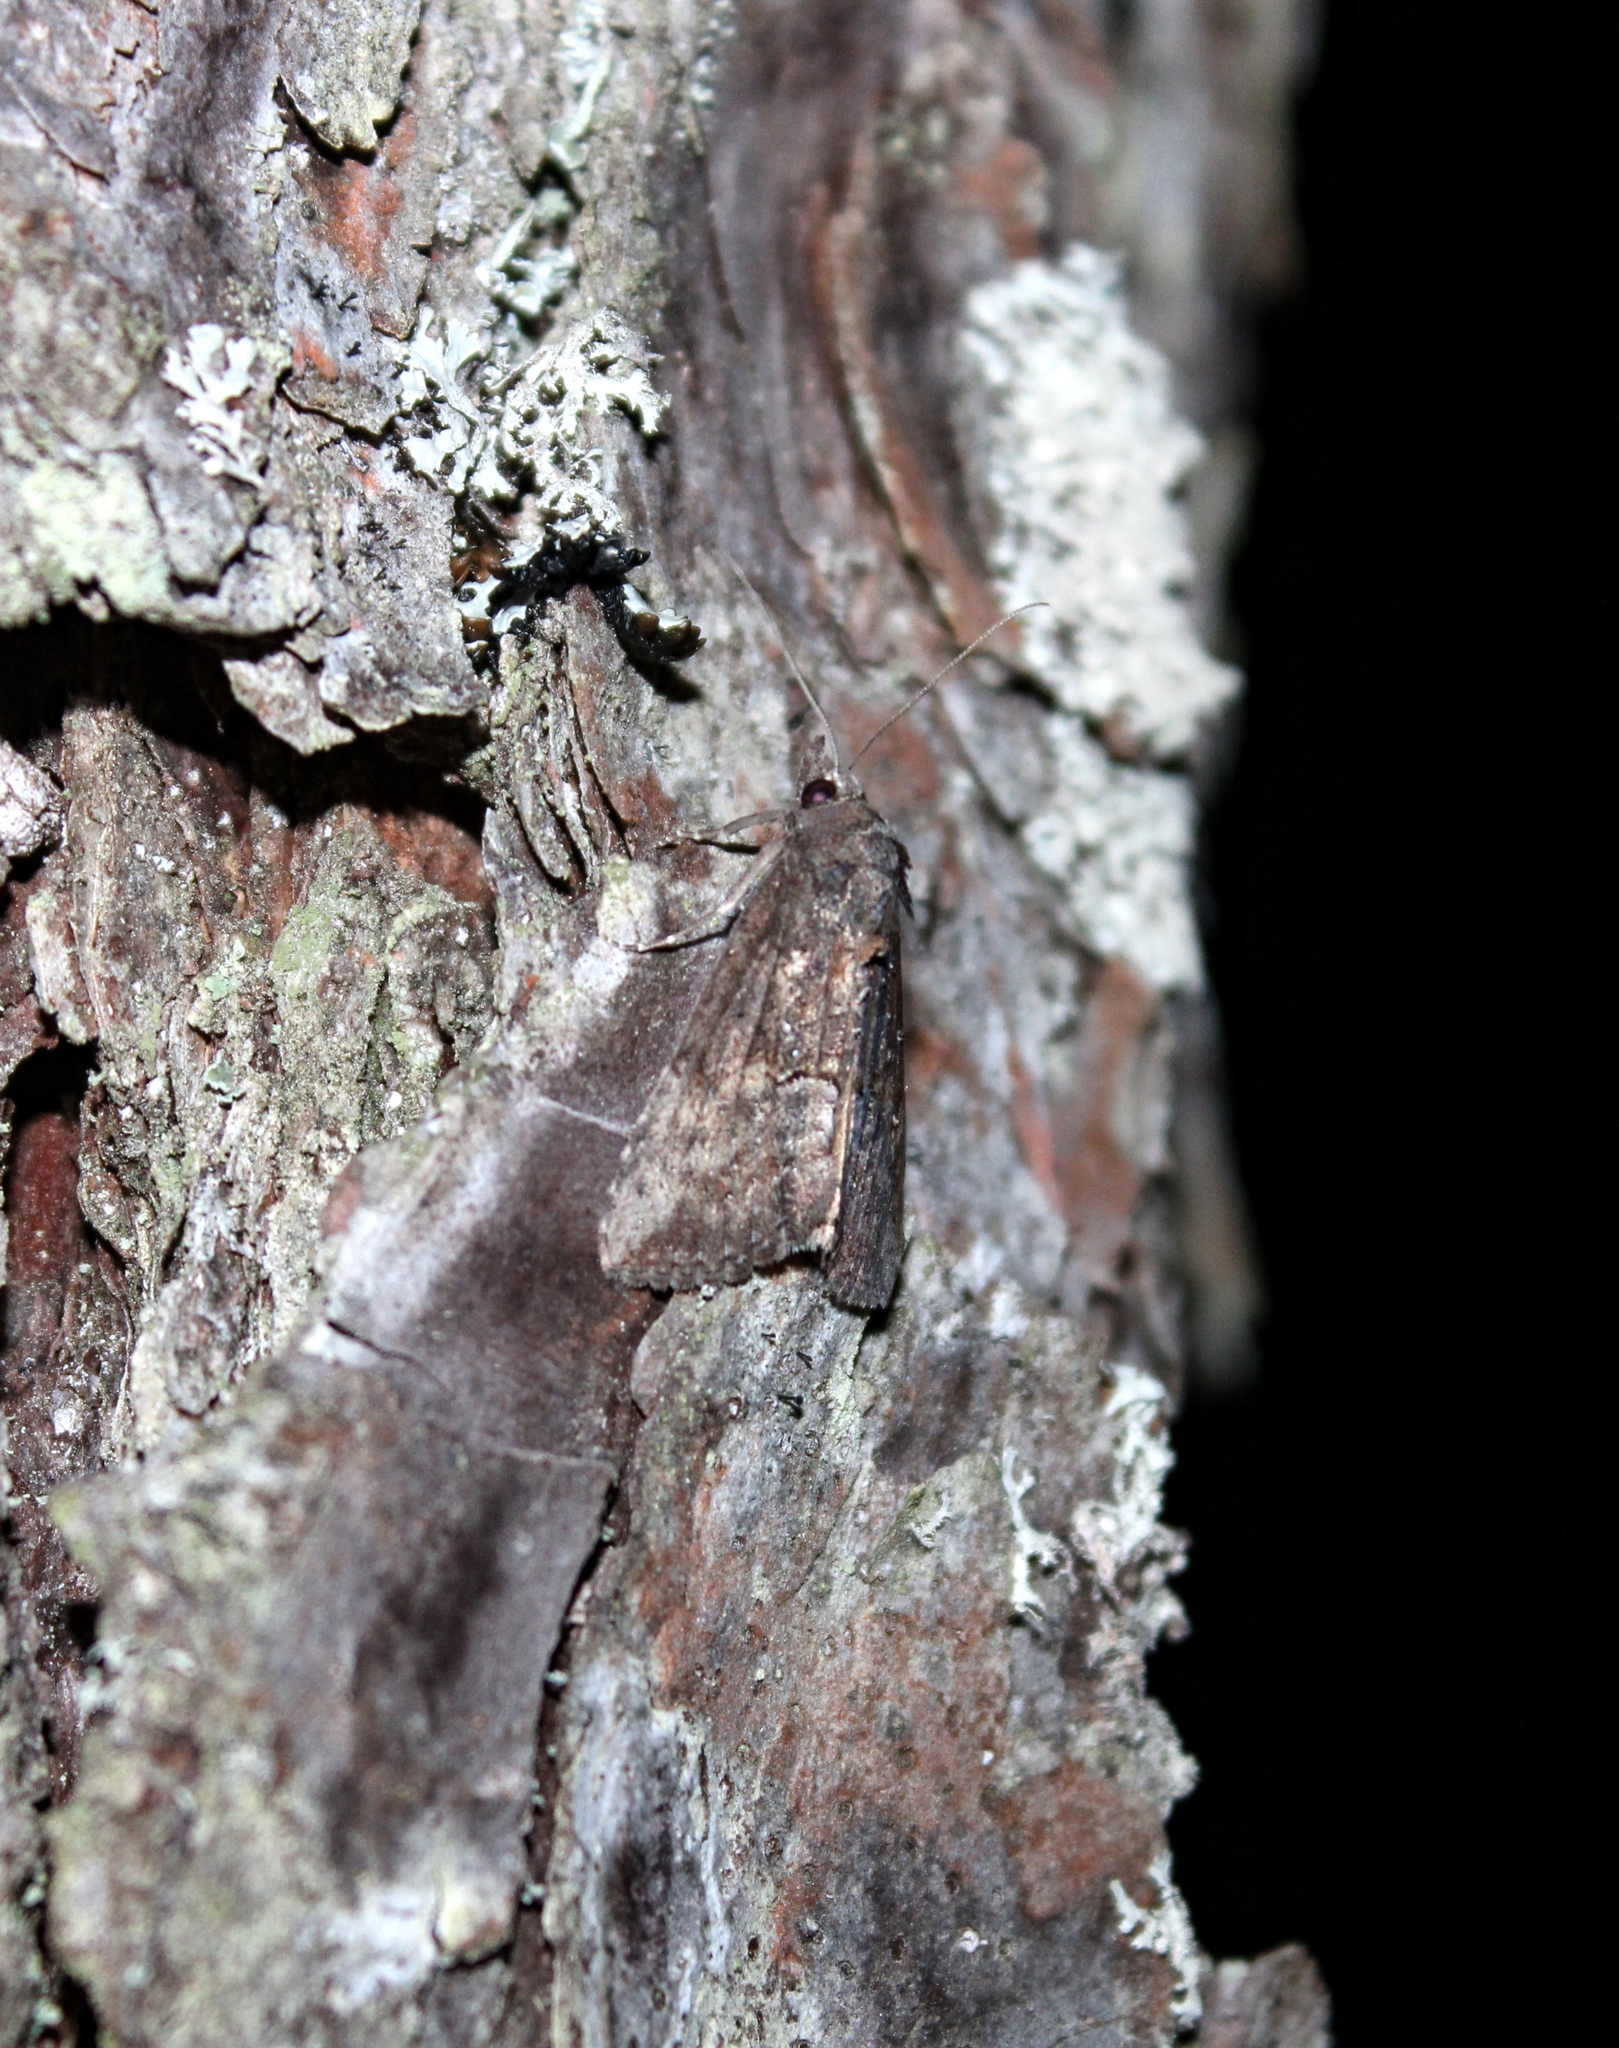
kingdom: Animalia
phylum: Arthropoda
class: Insecta
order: Lepidoptera
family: Erebidae
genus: Hypena
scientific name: Hypena scabra
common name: Green cloverworm
